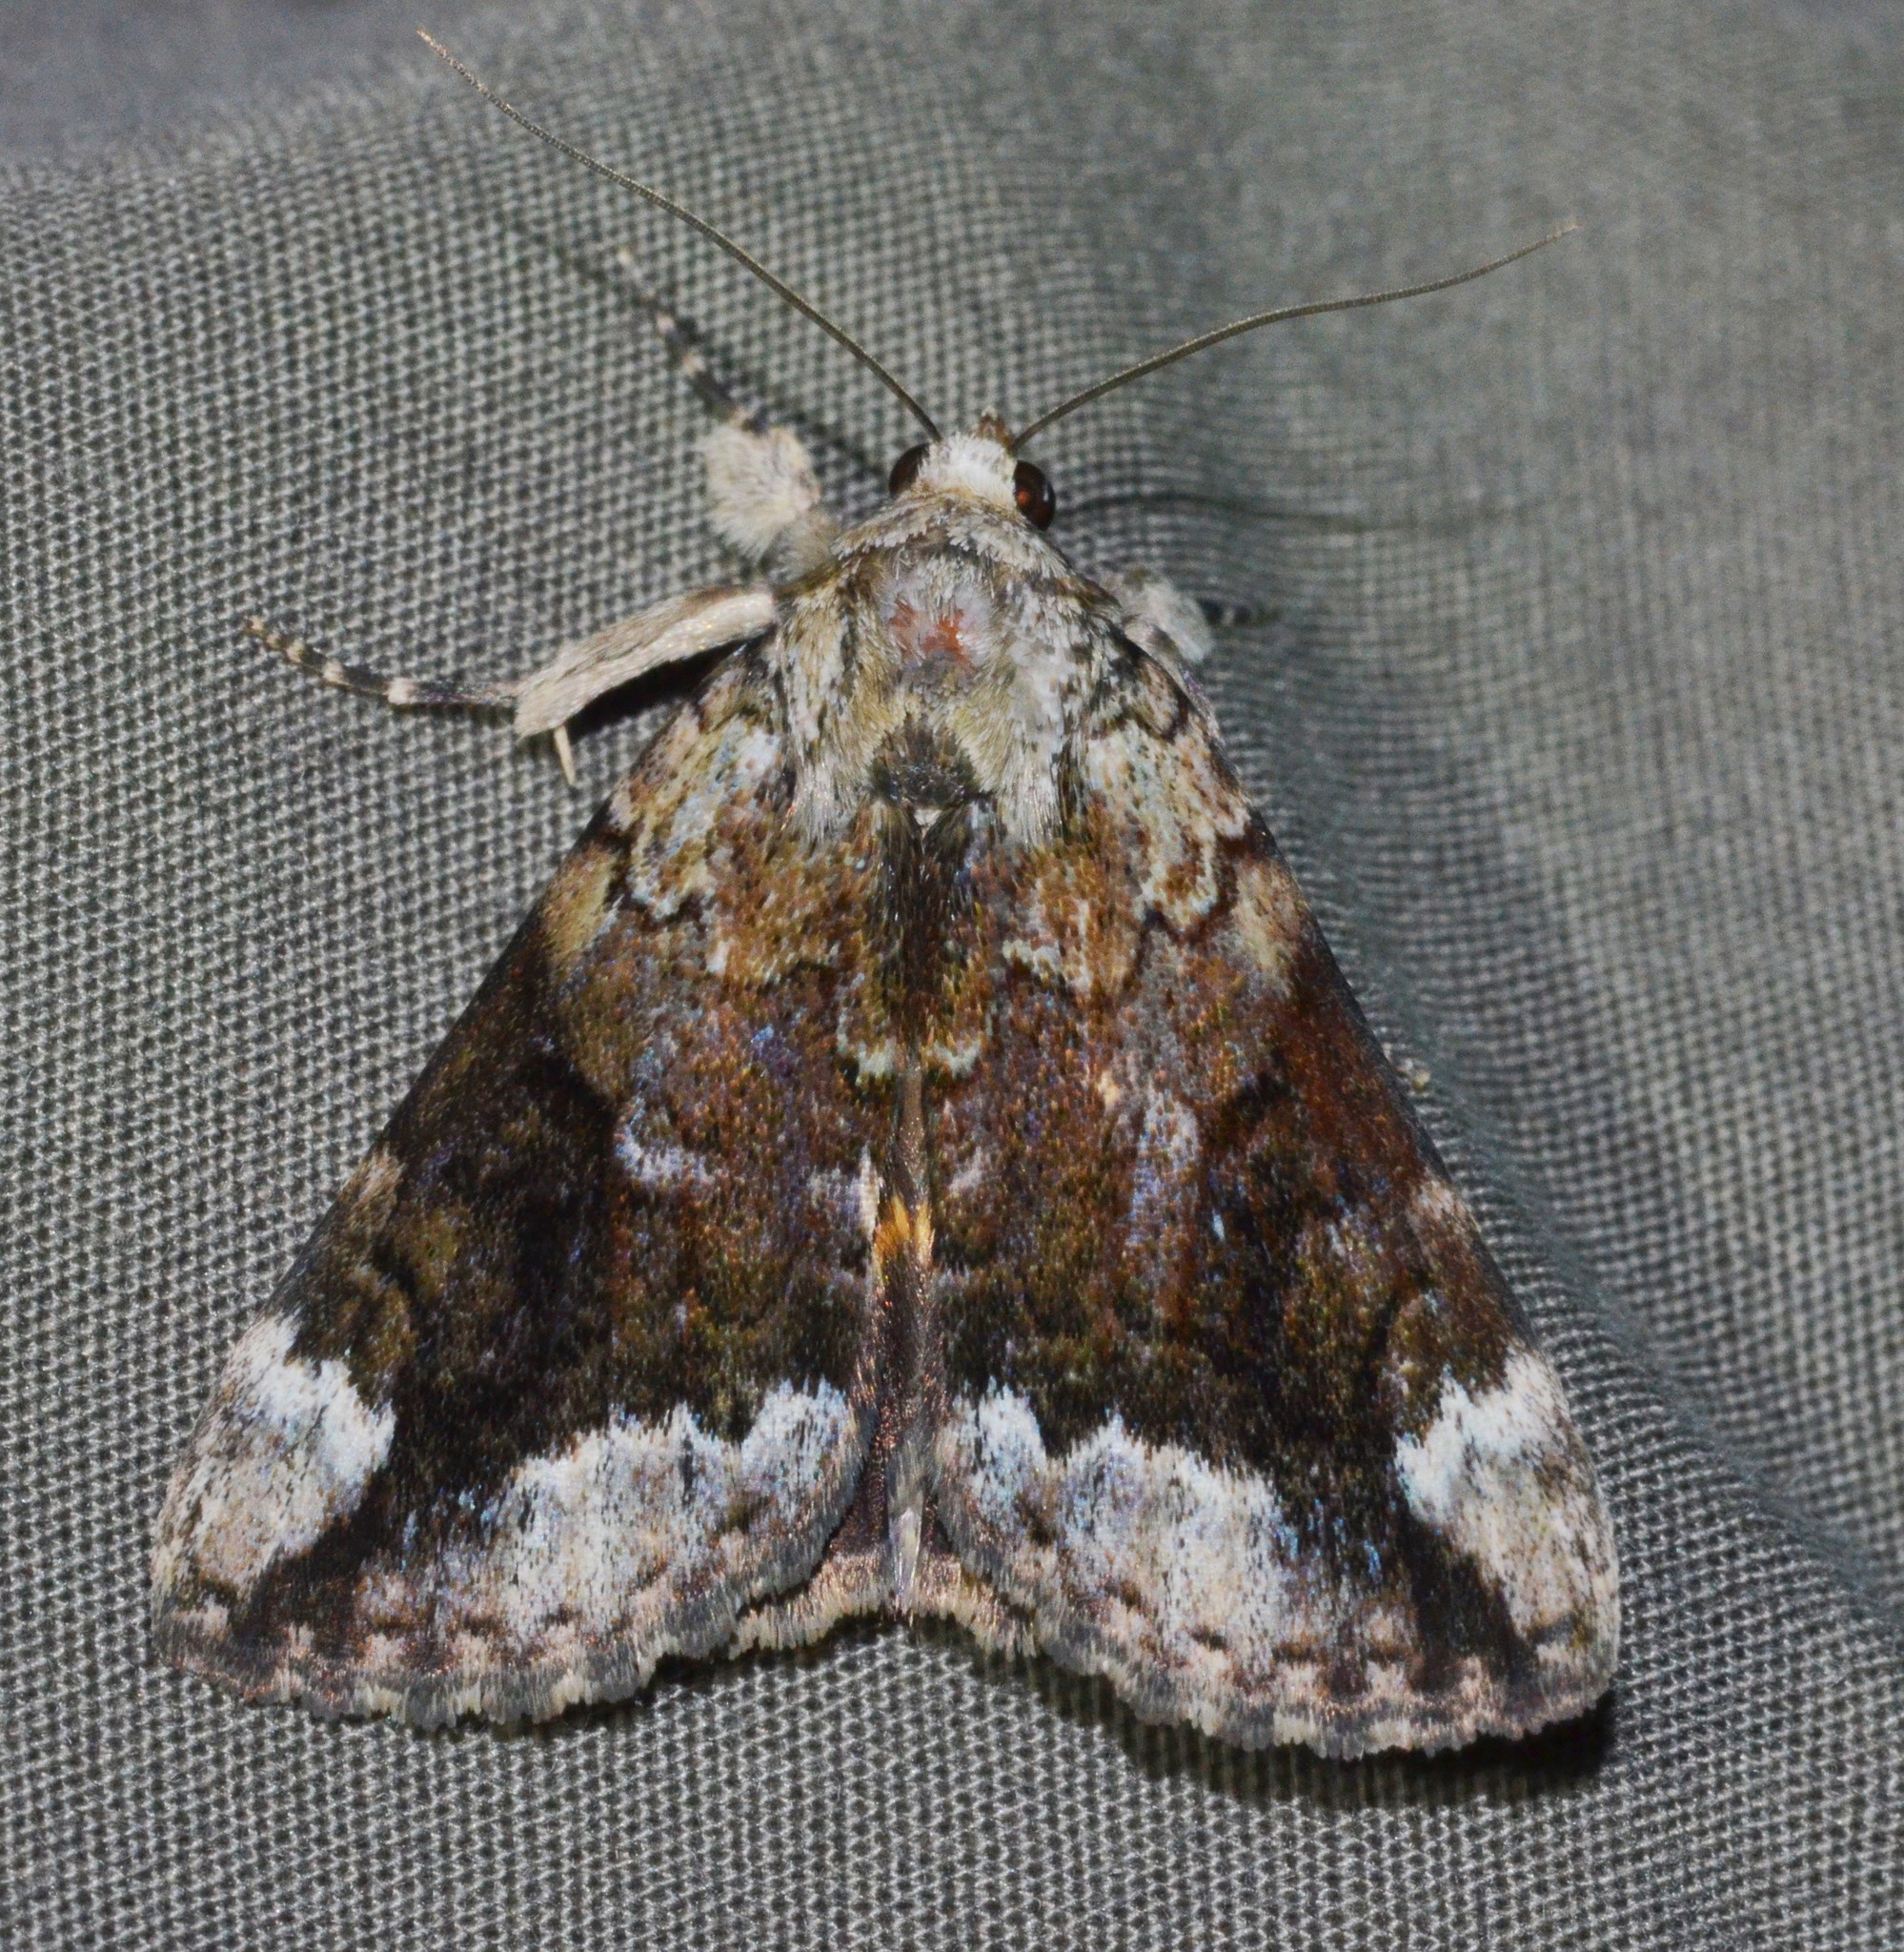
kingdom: Animalia
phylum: Arthropoda
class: Insecta
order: Lepidoptera
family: Erebidae
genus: Catocala
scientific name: Catocala micronympha
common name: Little nymph underwing
